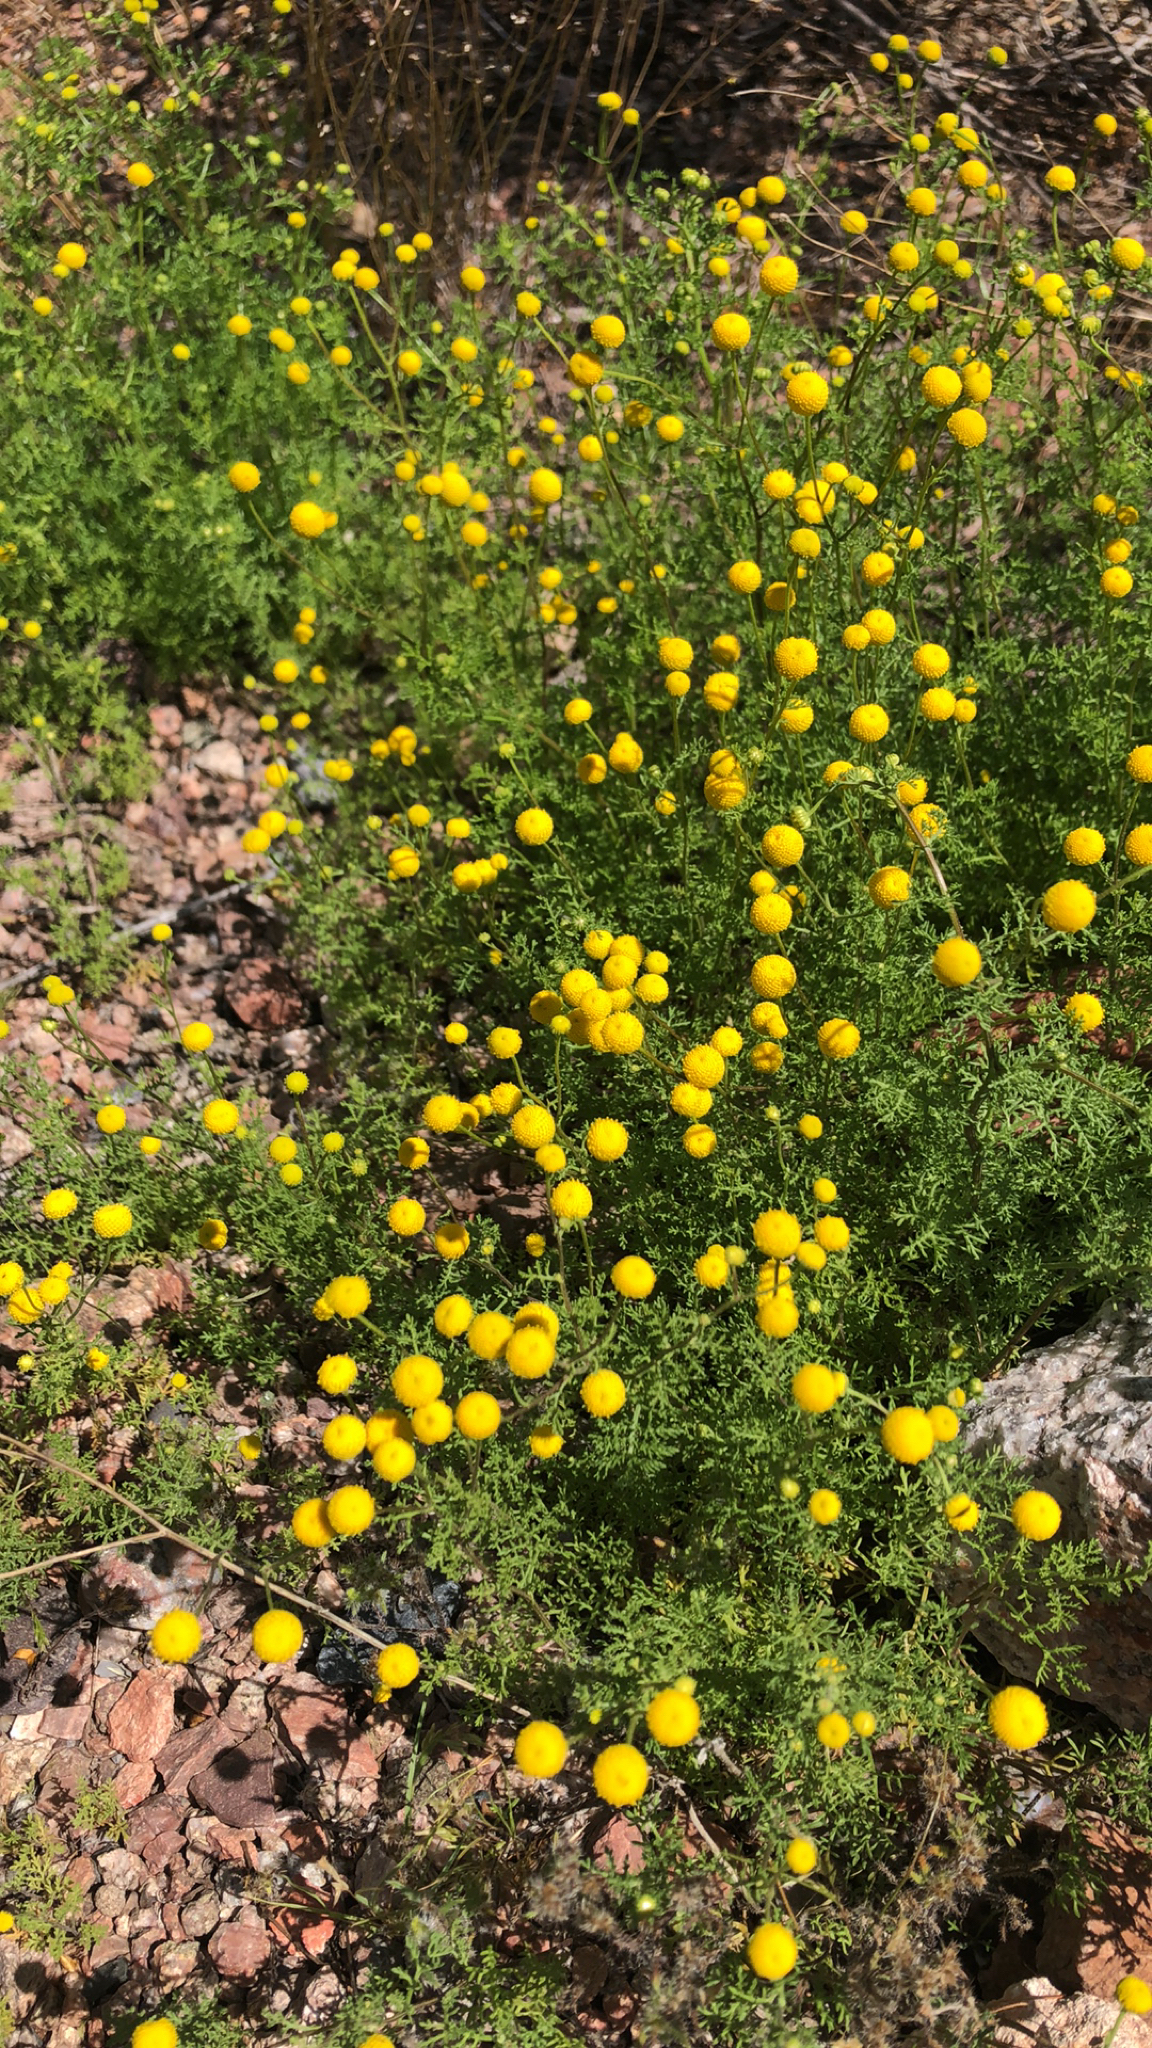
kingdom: Plantae
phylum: Tracheophyta
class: Magnoliopsida
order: Asterales
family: Asteraceae
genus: Oncosiphon
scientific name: Oncosiphon pilulifer
